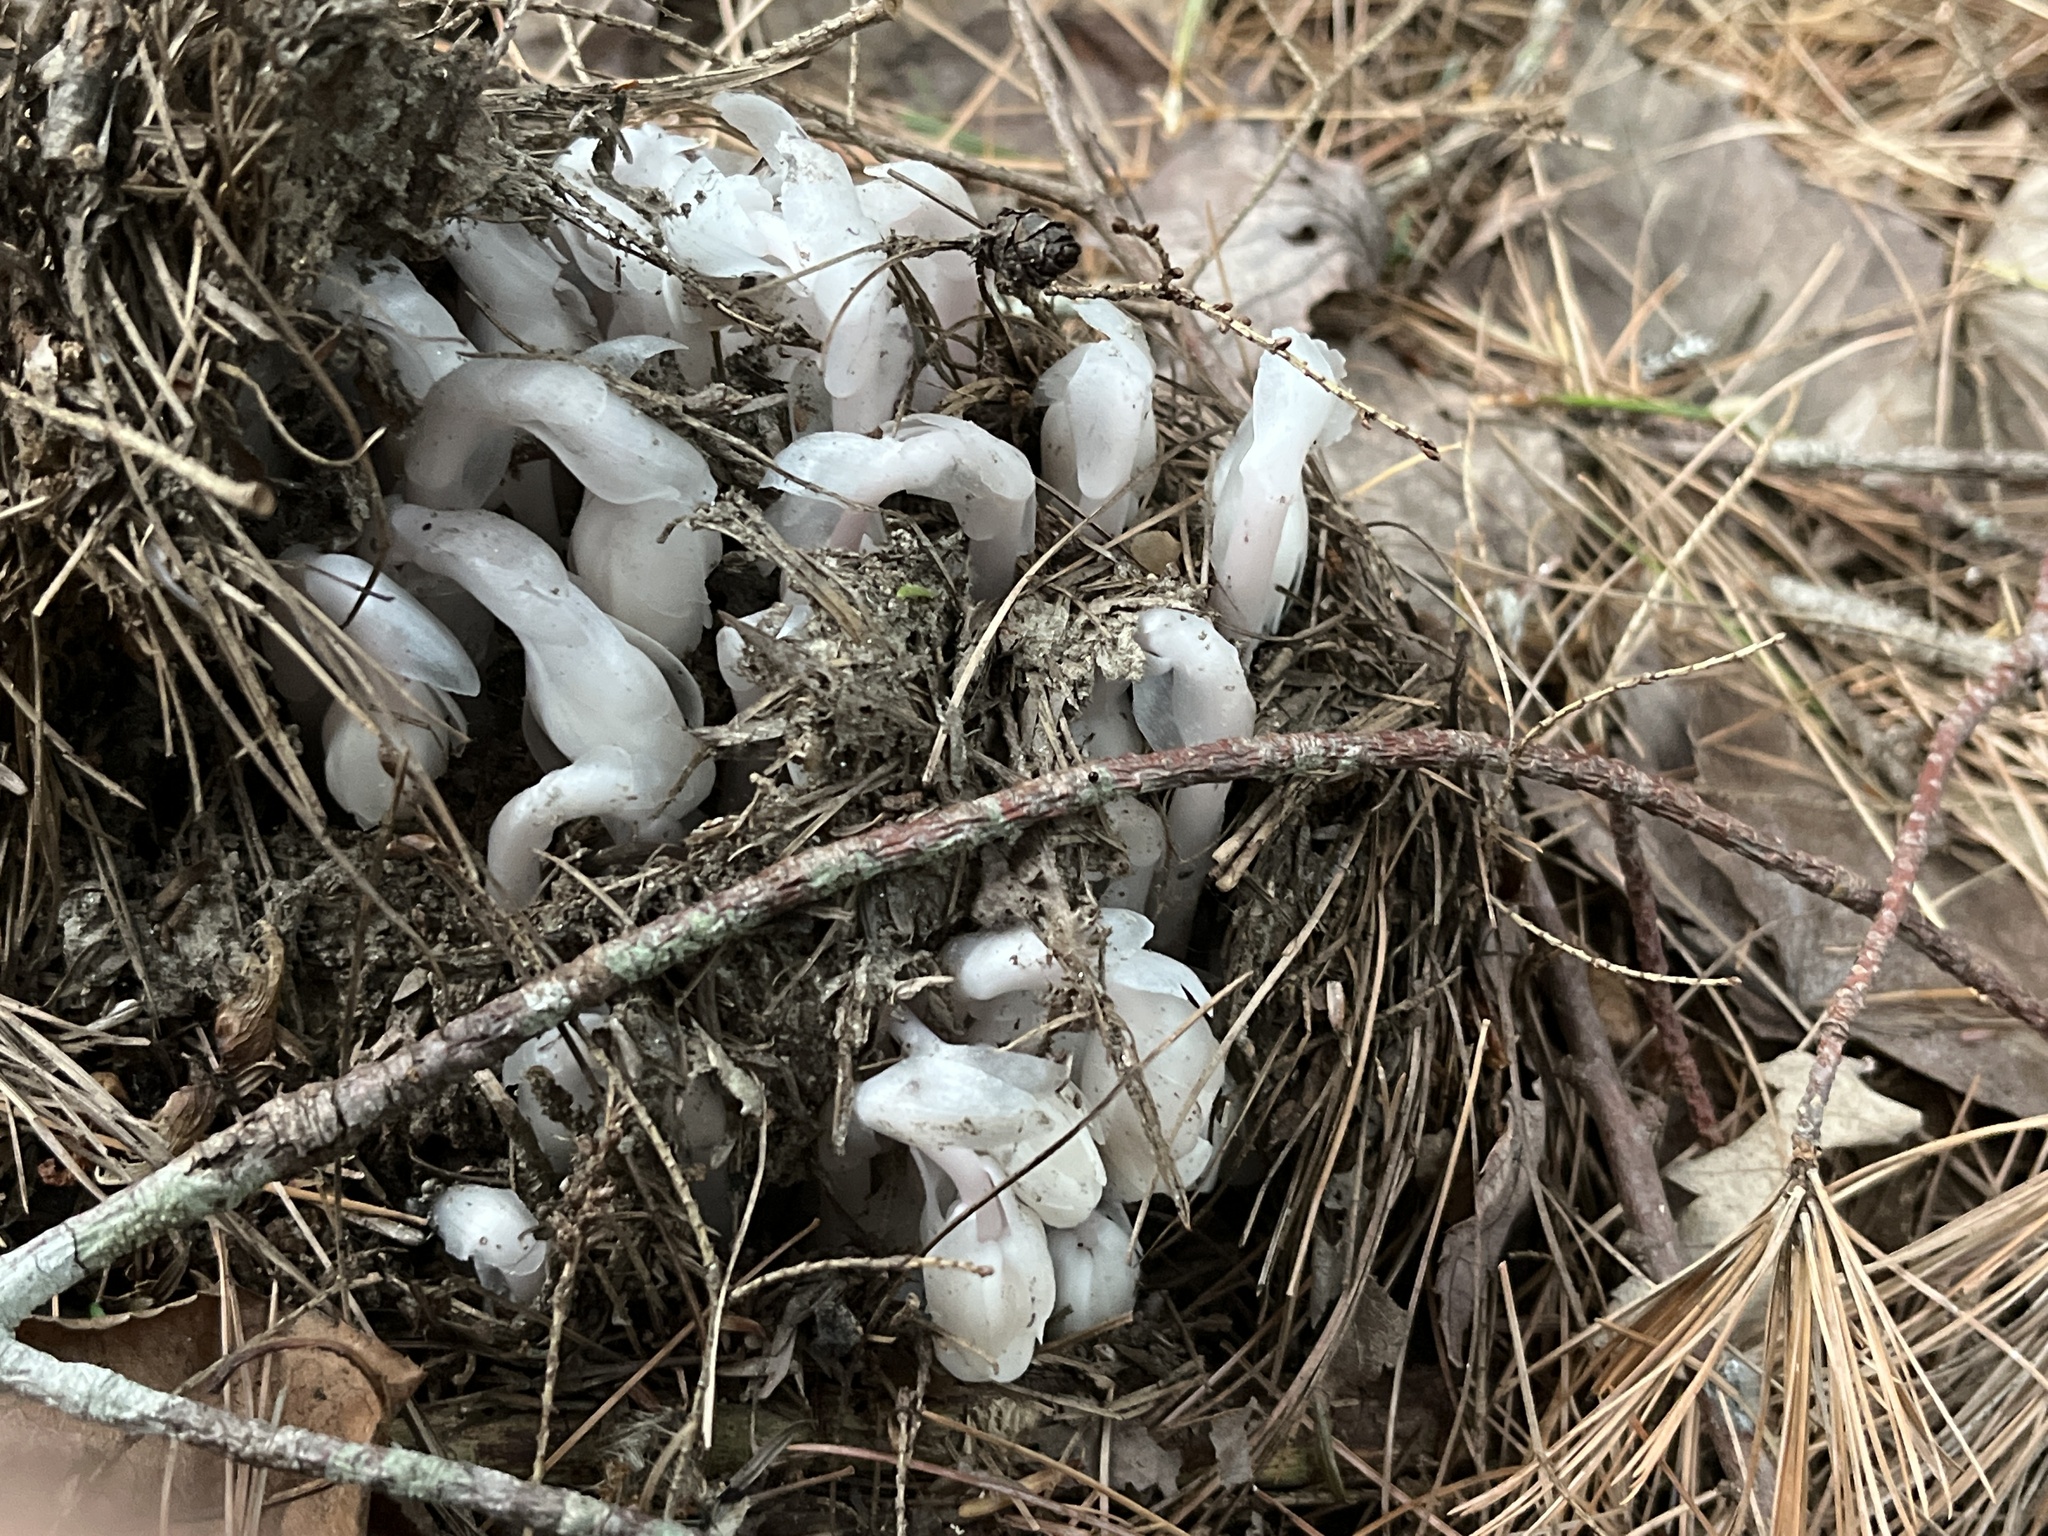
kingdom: Plantae
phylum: Tracheophyta
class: Magnoliopsida
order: Ericales
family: Ericaceae
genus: Monotropa
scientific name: Monotropa uniflora
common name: Convulsion root
